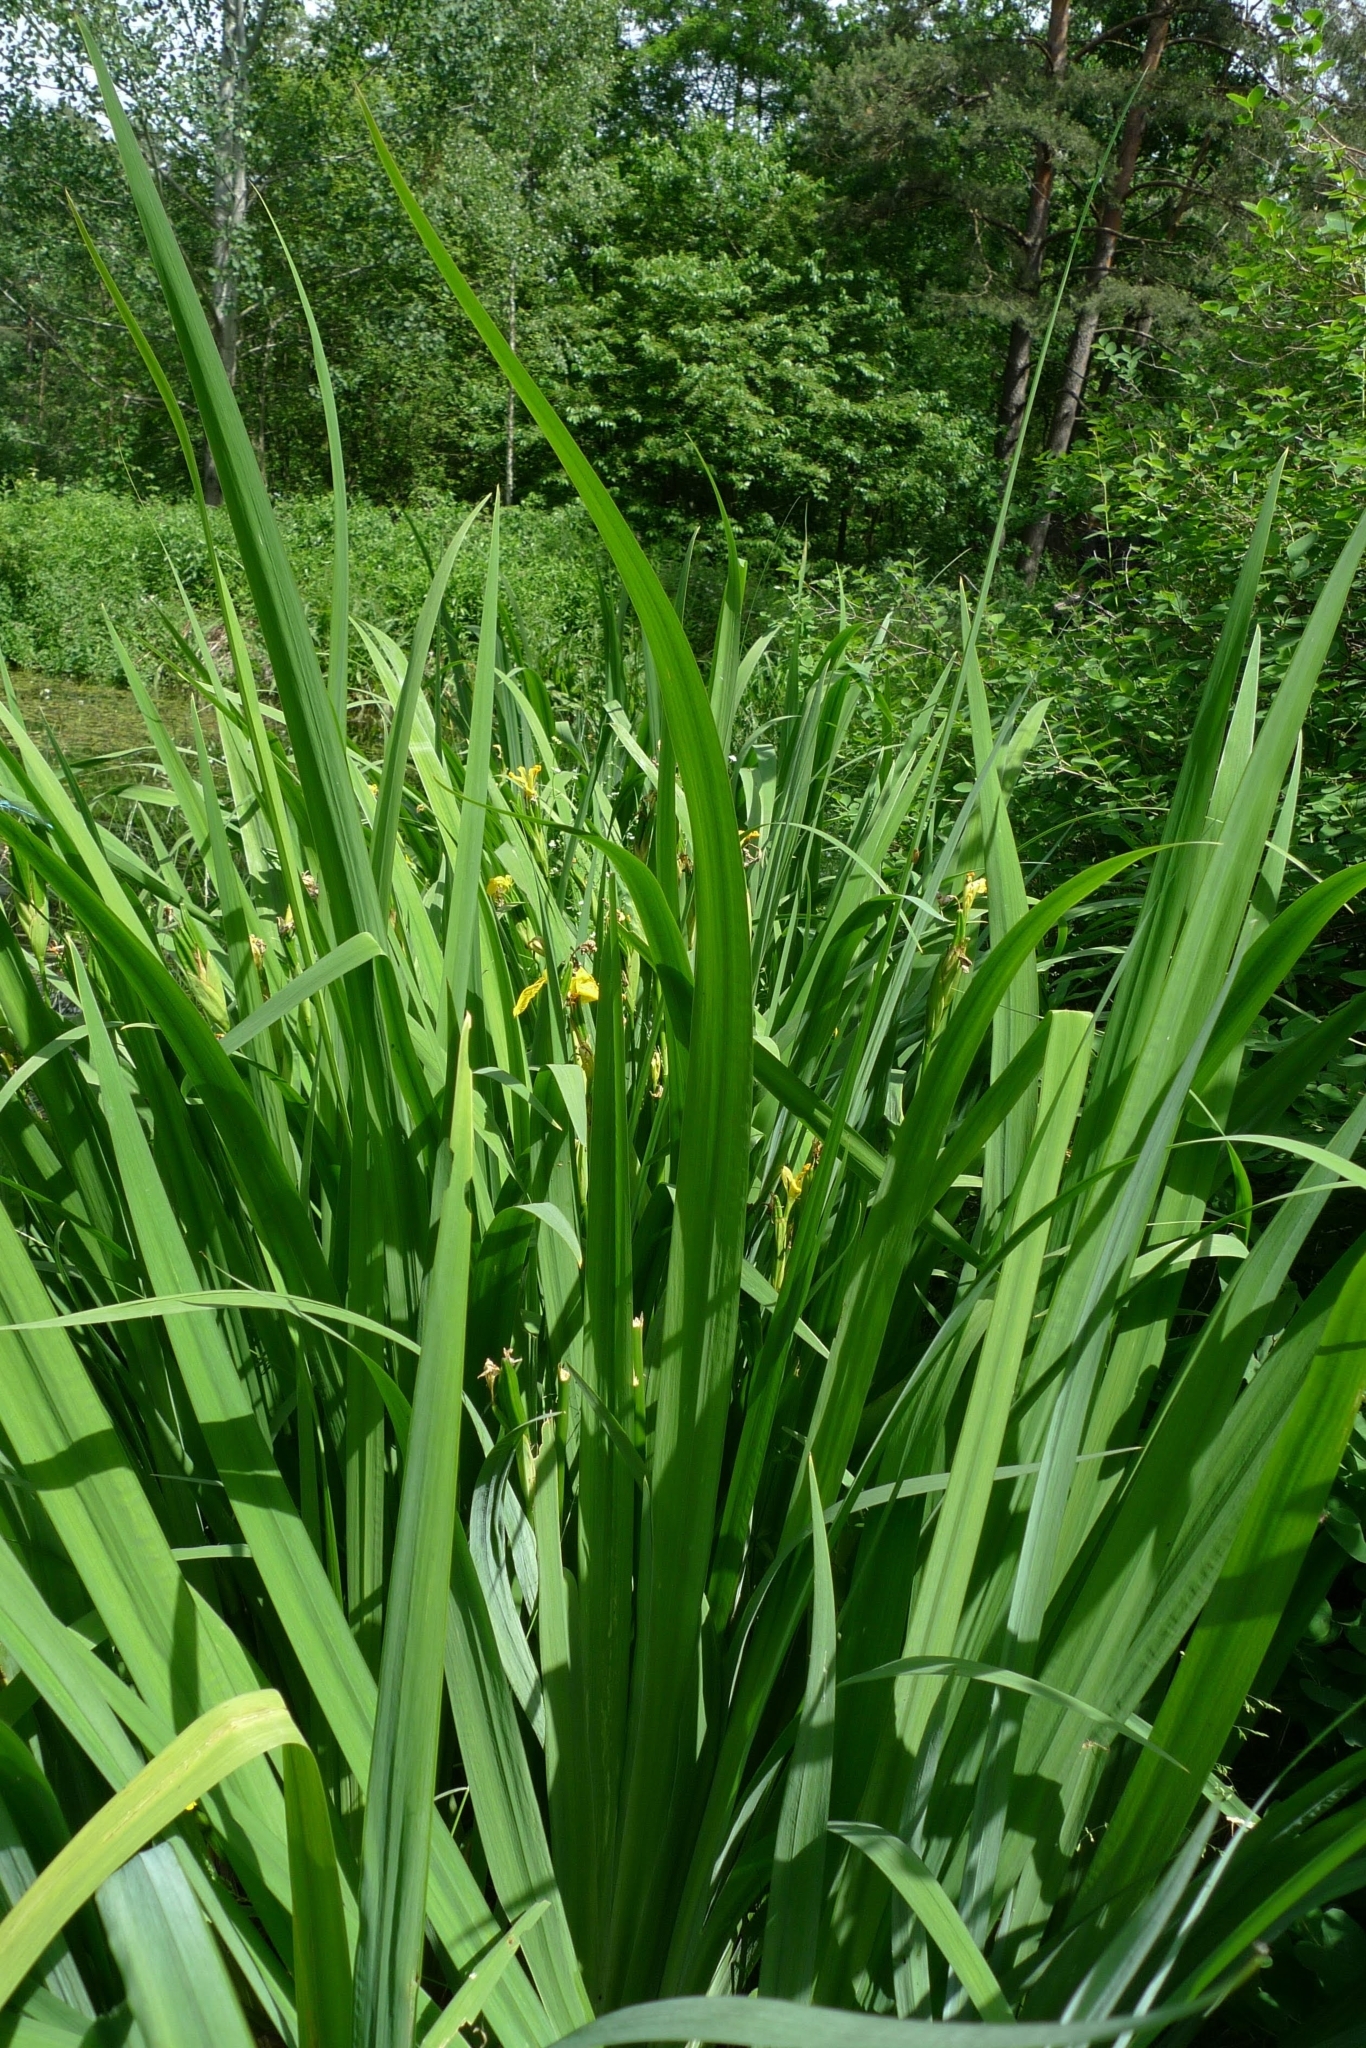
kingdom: Plantae
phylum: Tracheophyta
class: Liliopsida
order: Asparagales
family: Iridaceae
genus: Iris
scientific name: Iris pseudacorus
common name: Yellow flag
